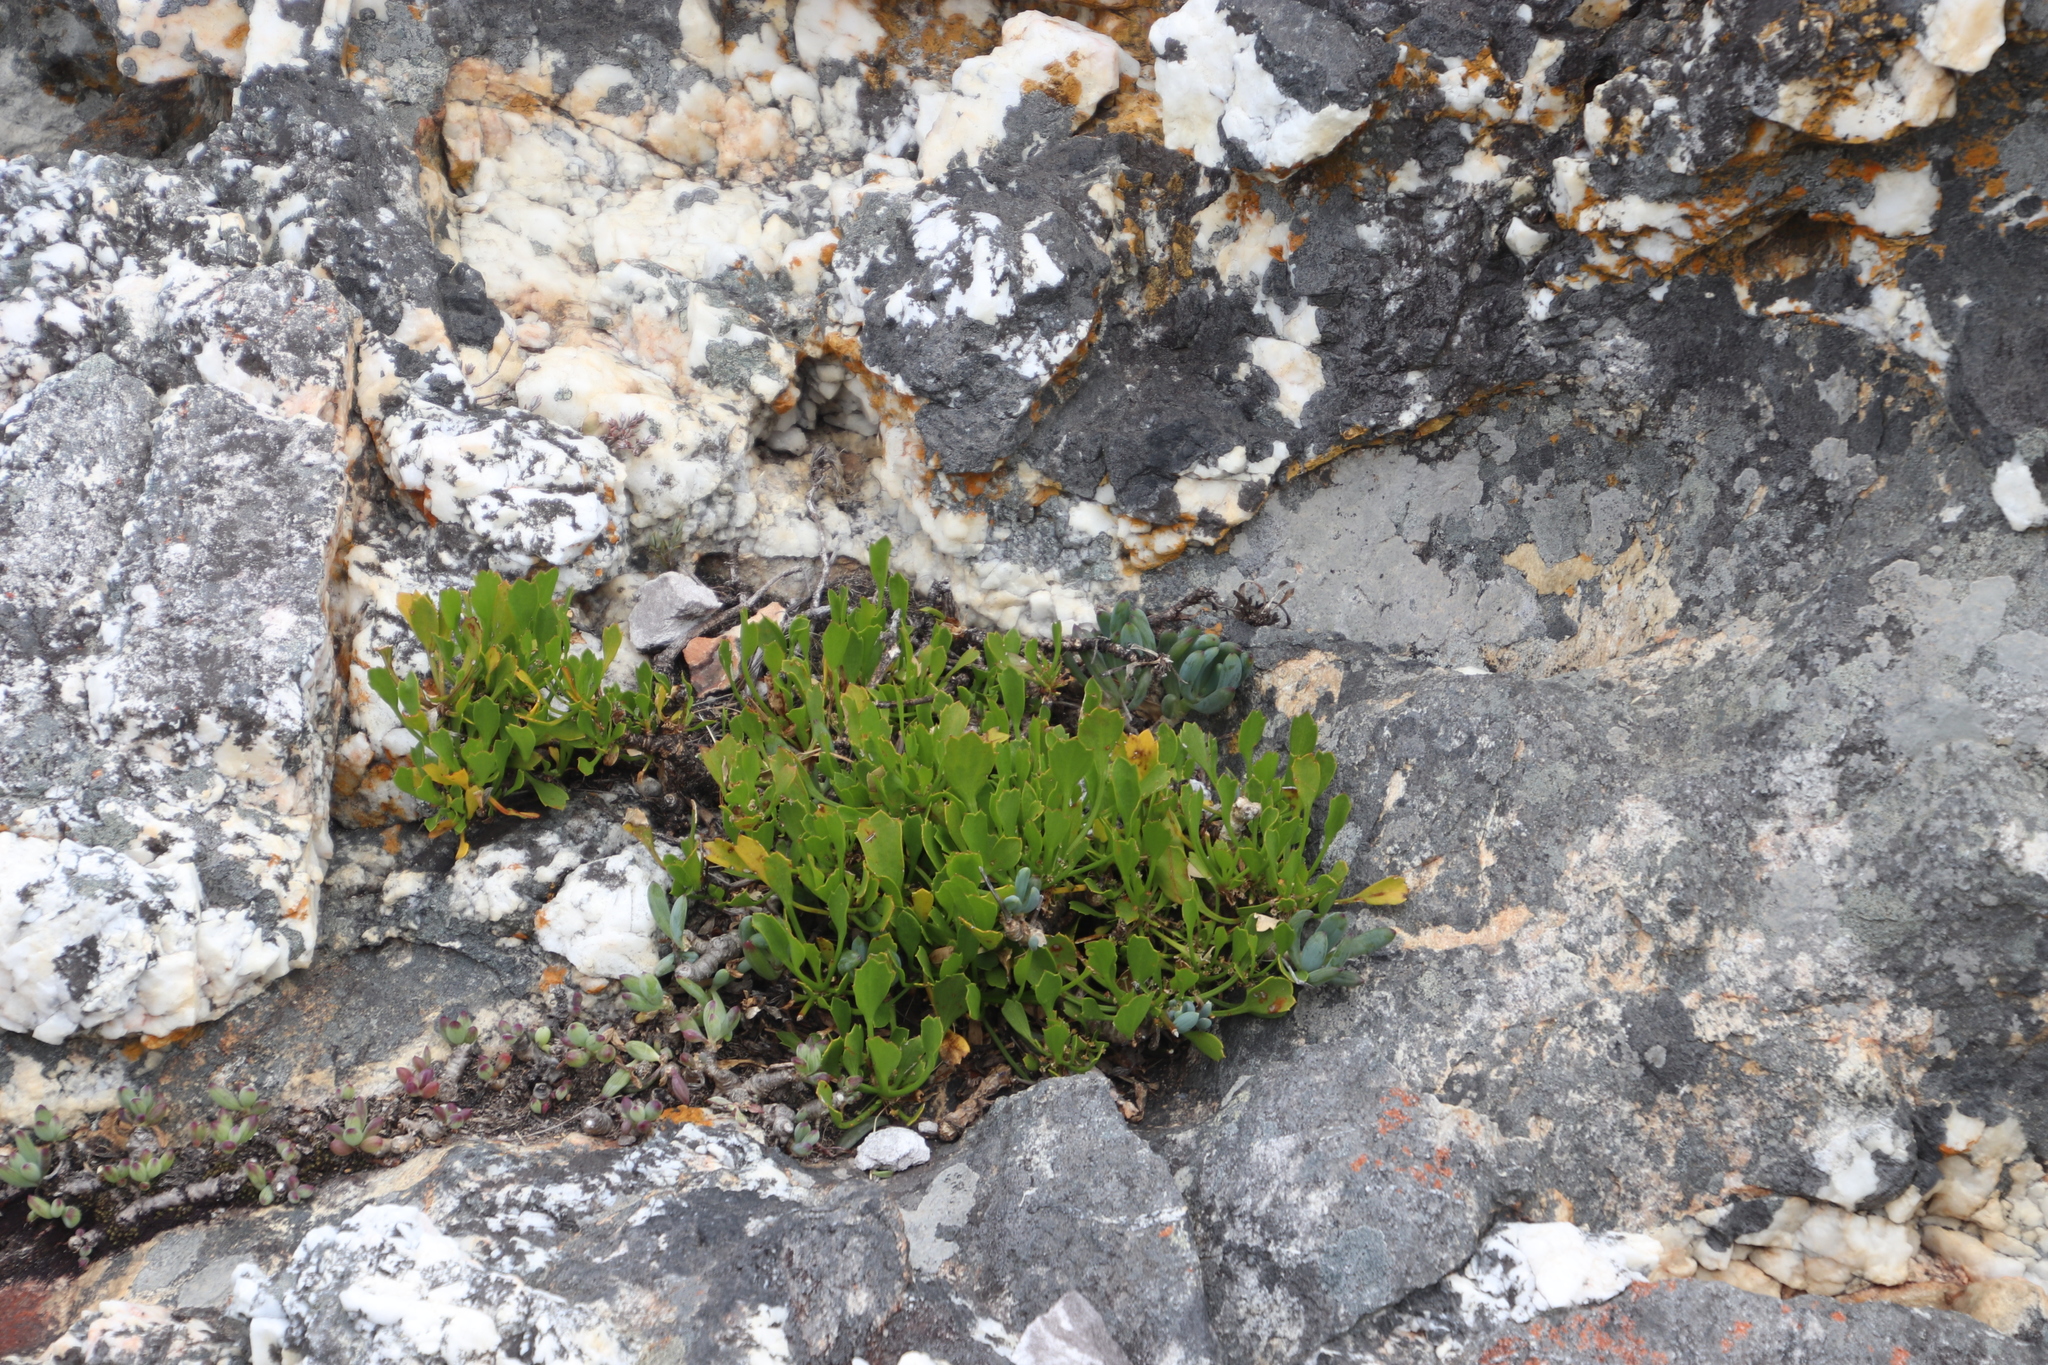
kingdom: Plantae
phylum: Tracheophyta
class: Magnoliopsida
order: Apiales
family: Apiaceae
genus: Centella
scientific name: Centella triloba
